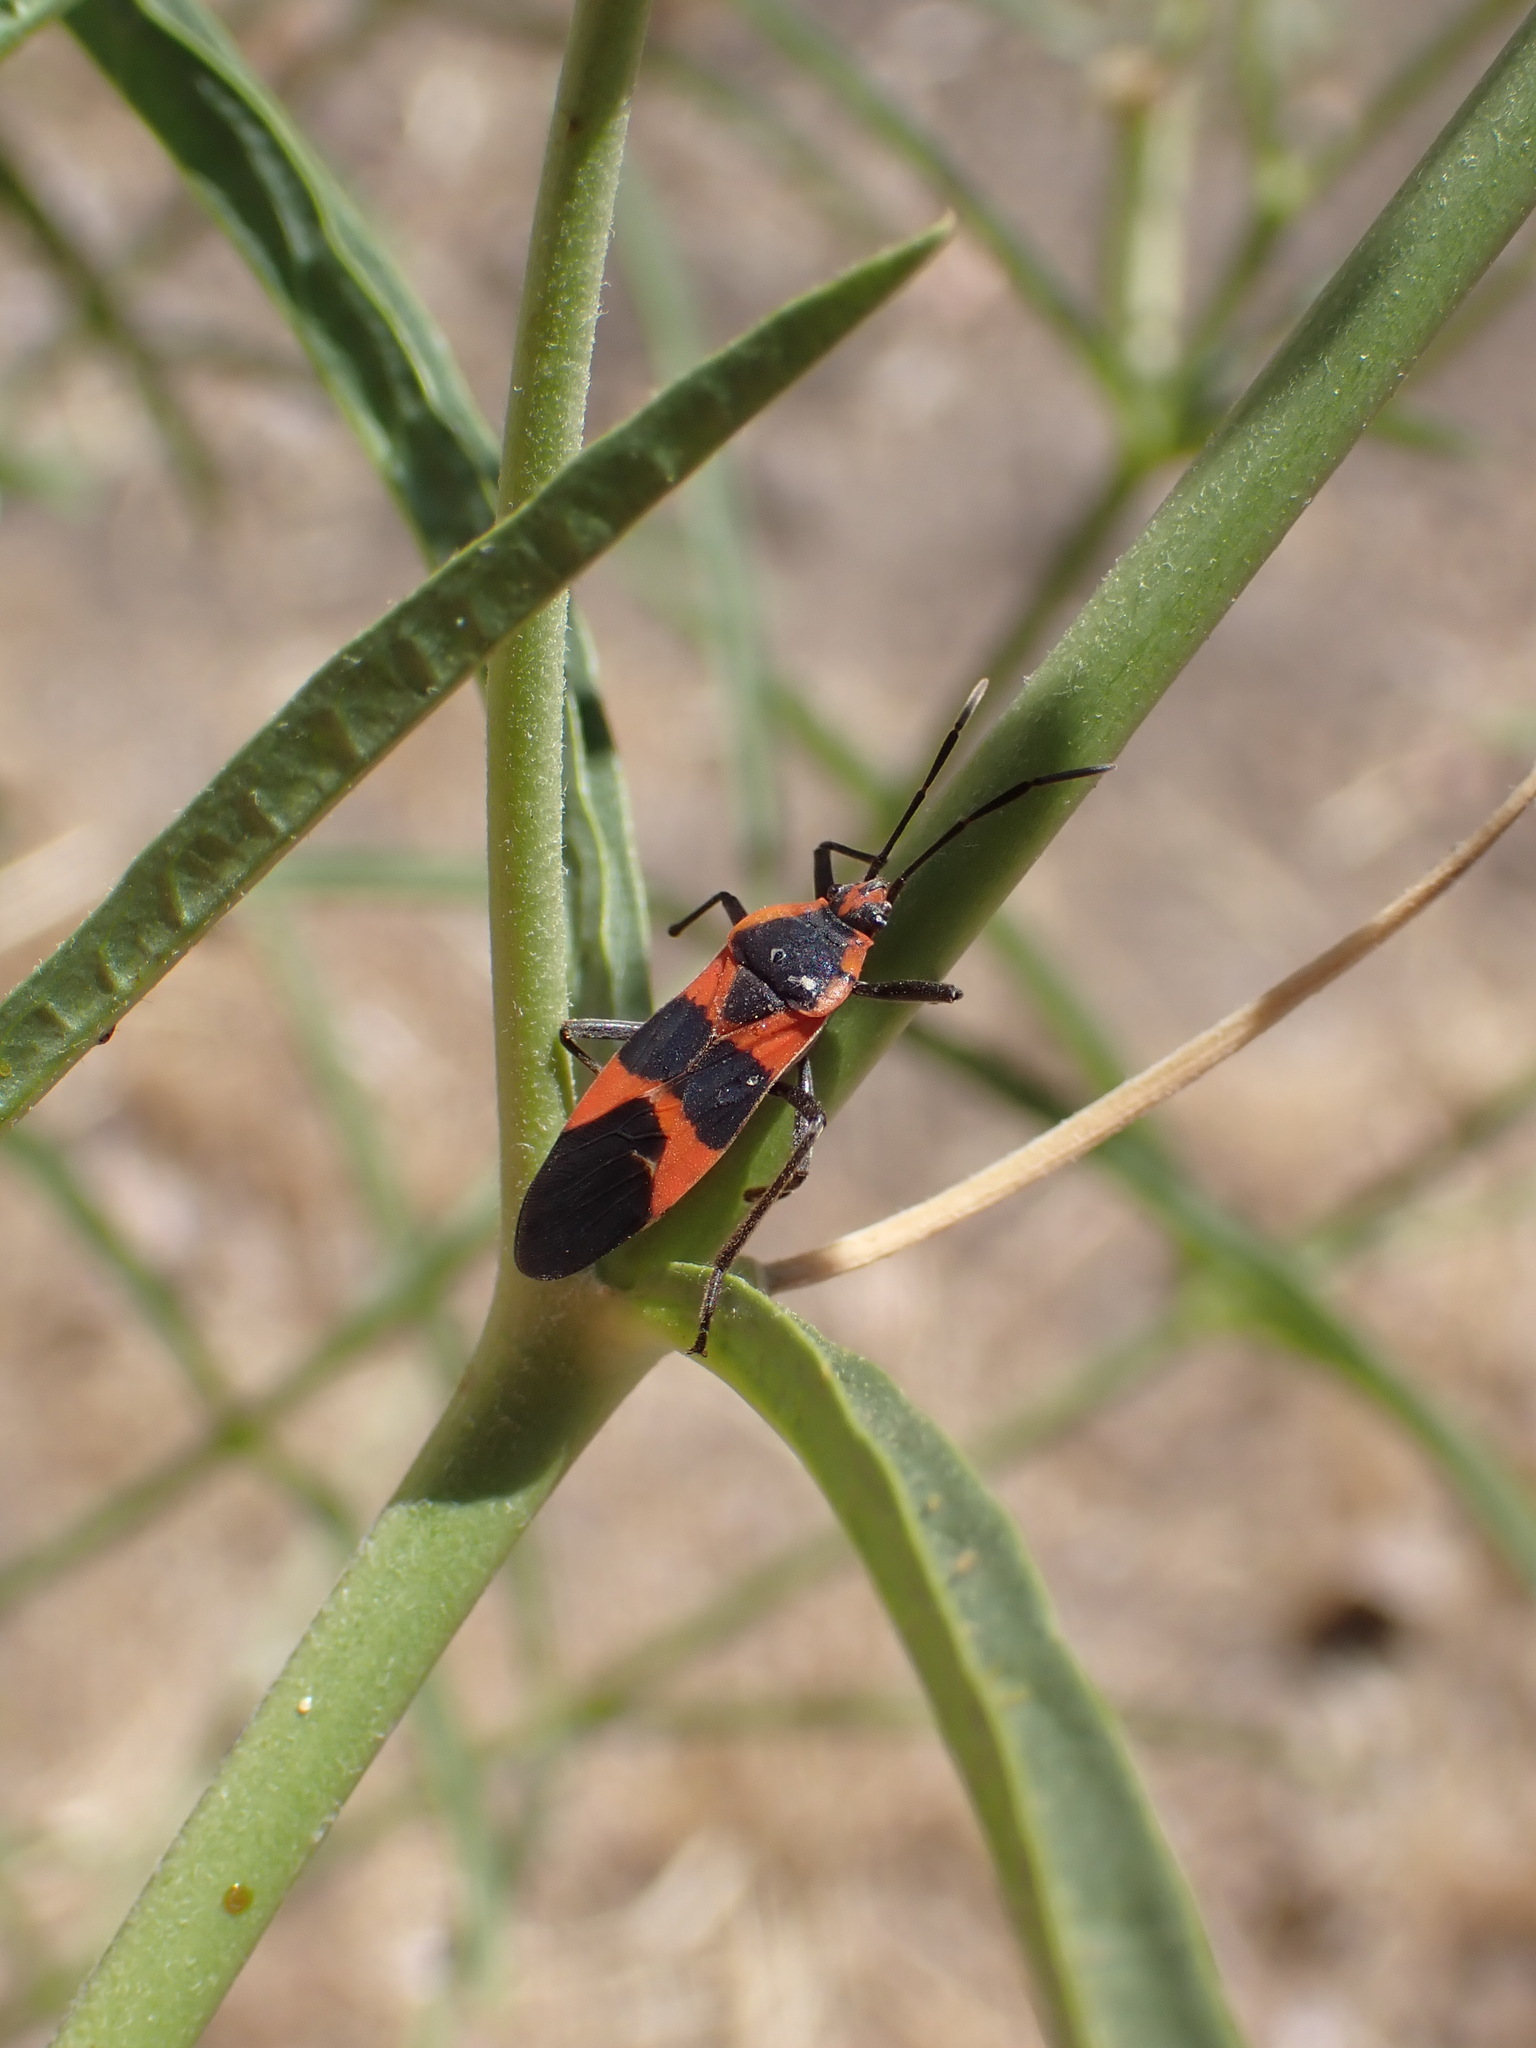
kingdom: Animalia
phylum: Arthropoda
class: Insecta
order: Hemiptera
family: Lygaeidae
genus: Oncopeltus
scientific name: Oncopeltus fasciatus
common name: Large milkweed bug
